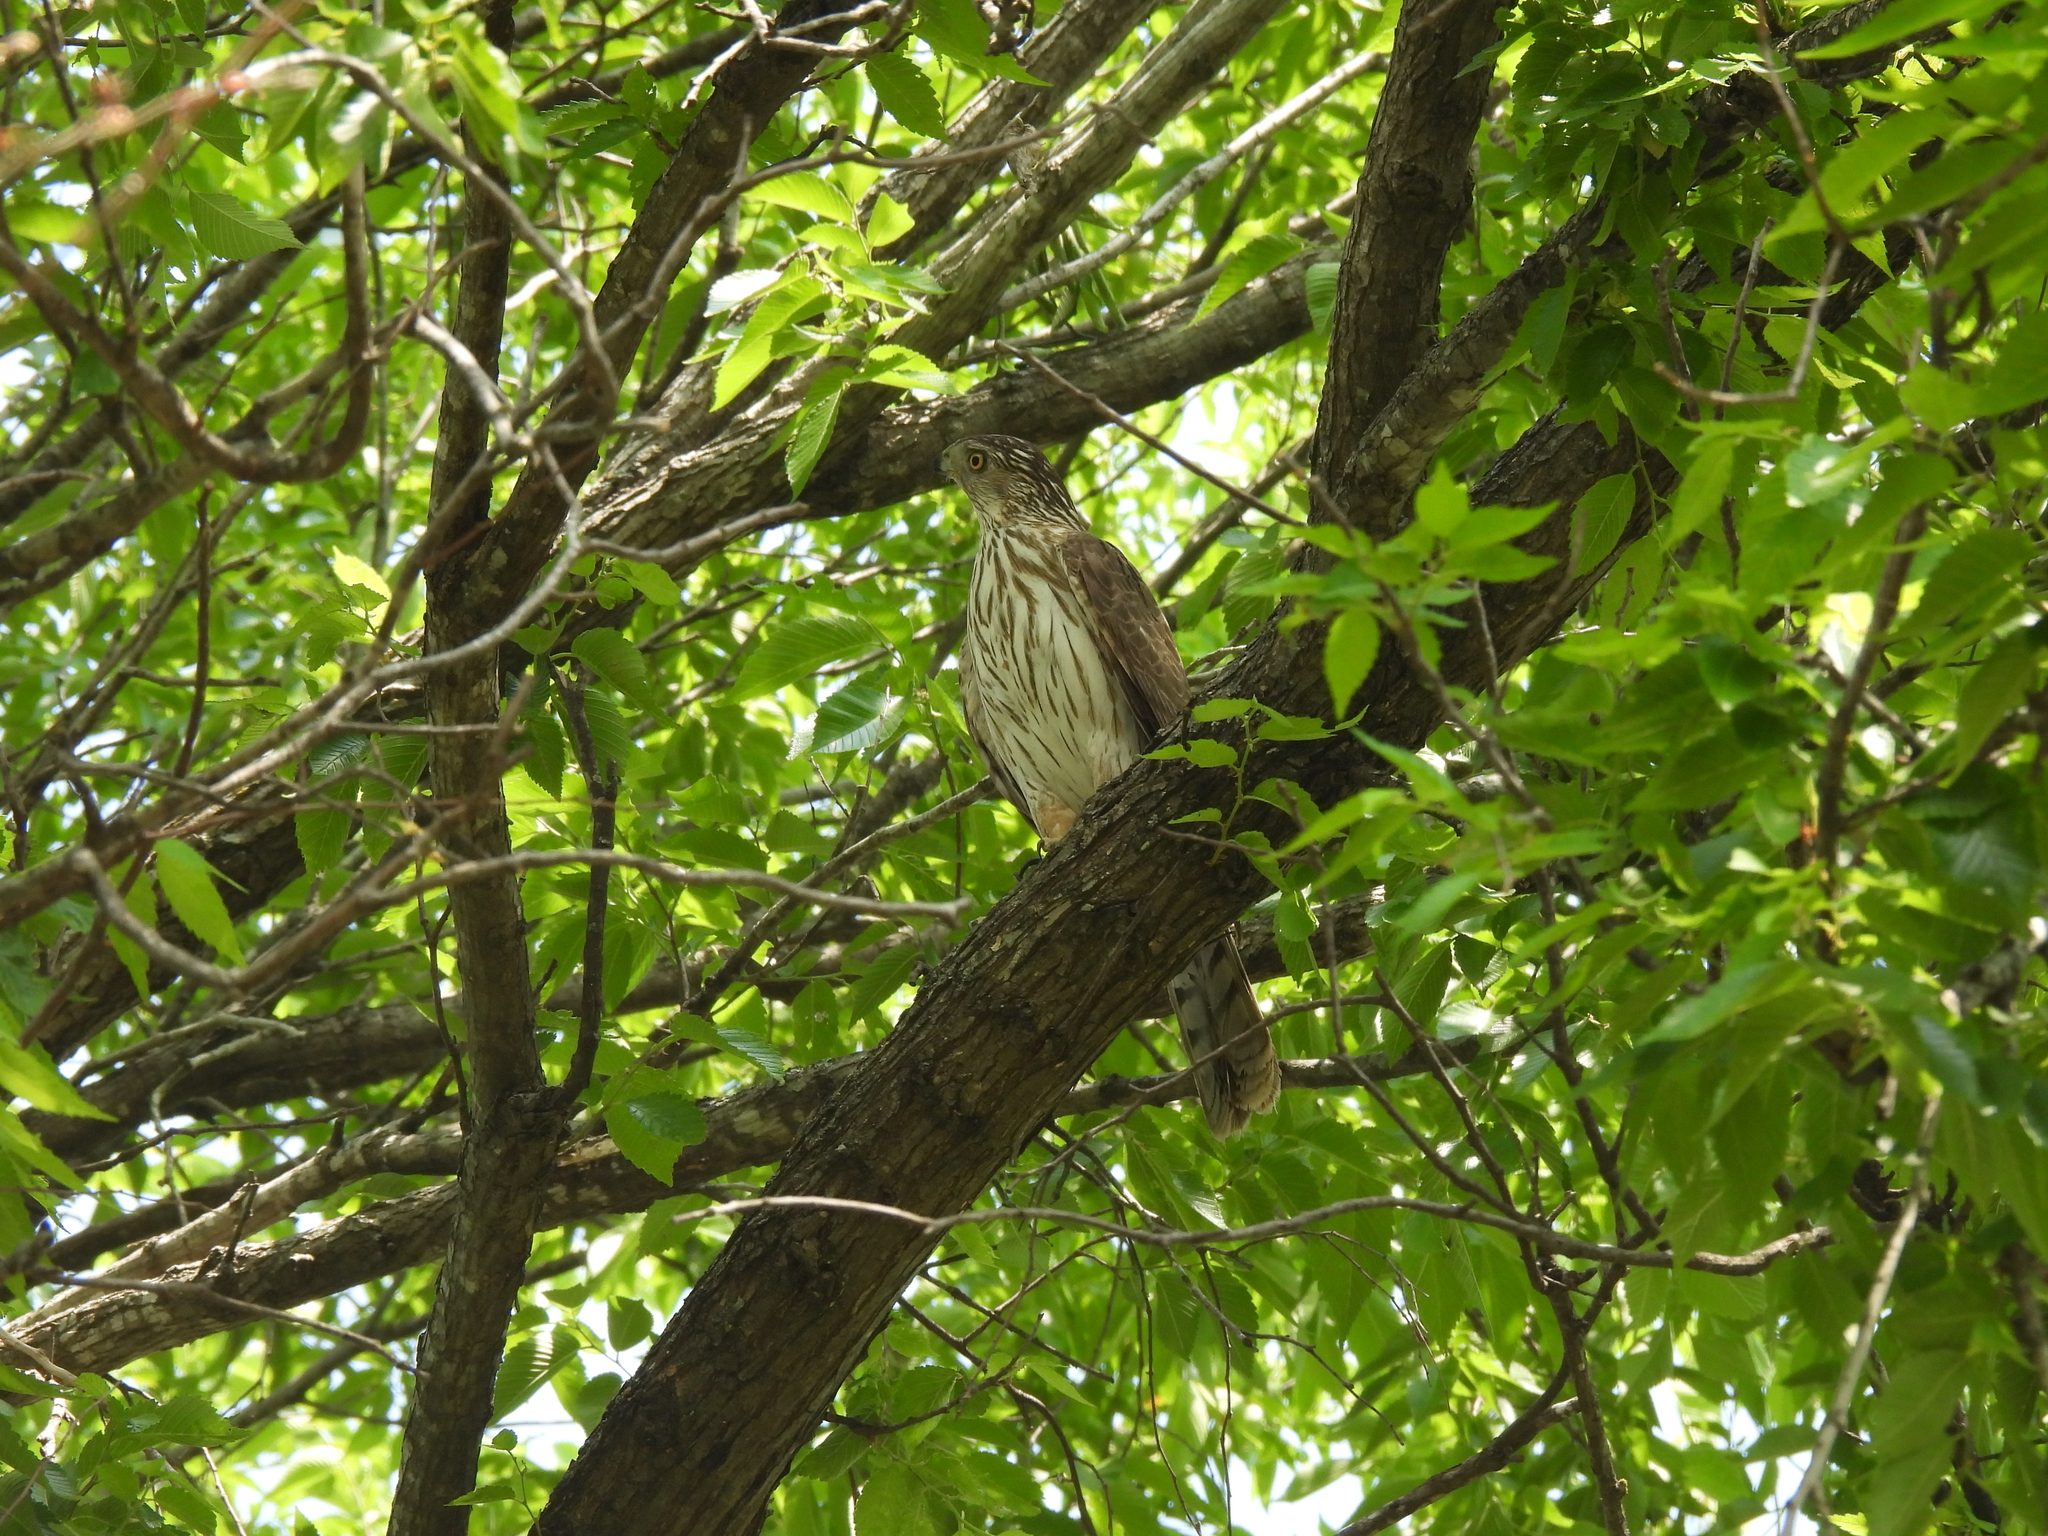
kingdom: Animalia
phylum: Chordata
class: Aves
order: Accipitriformes
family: Accipitridae
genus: Accipiter
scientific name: Accipiter cooperii
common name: Cooper's hawk
